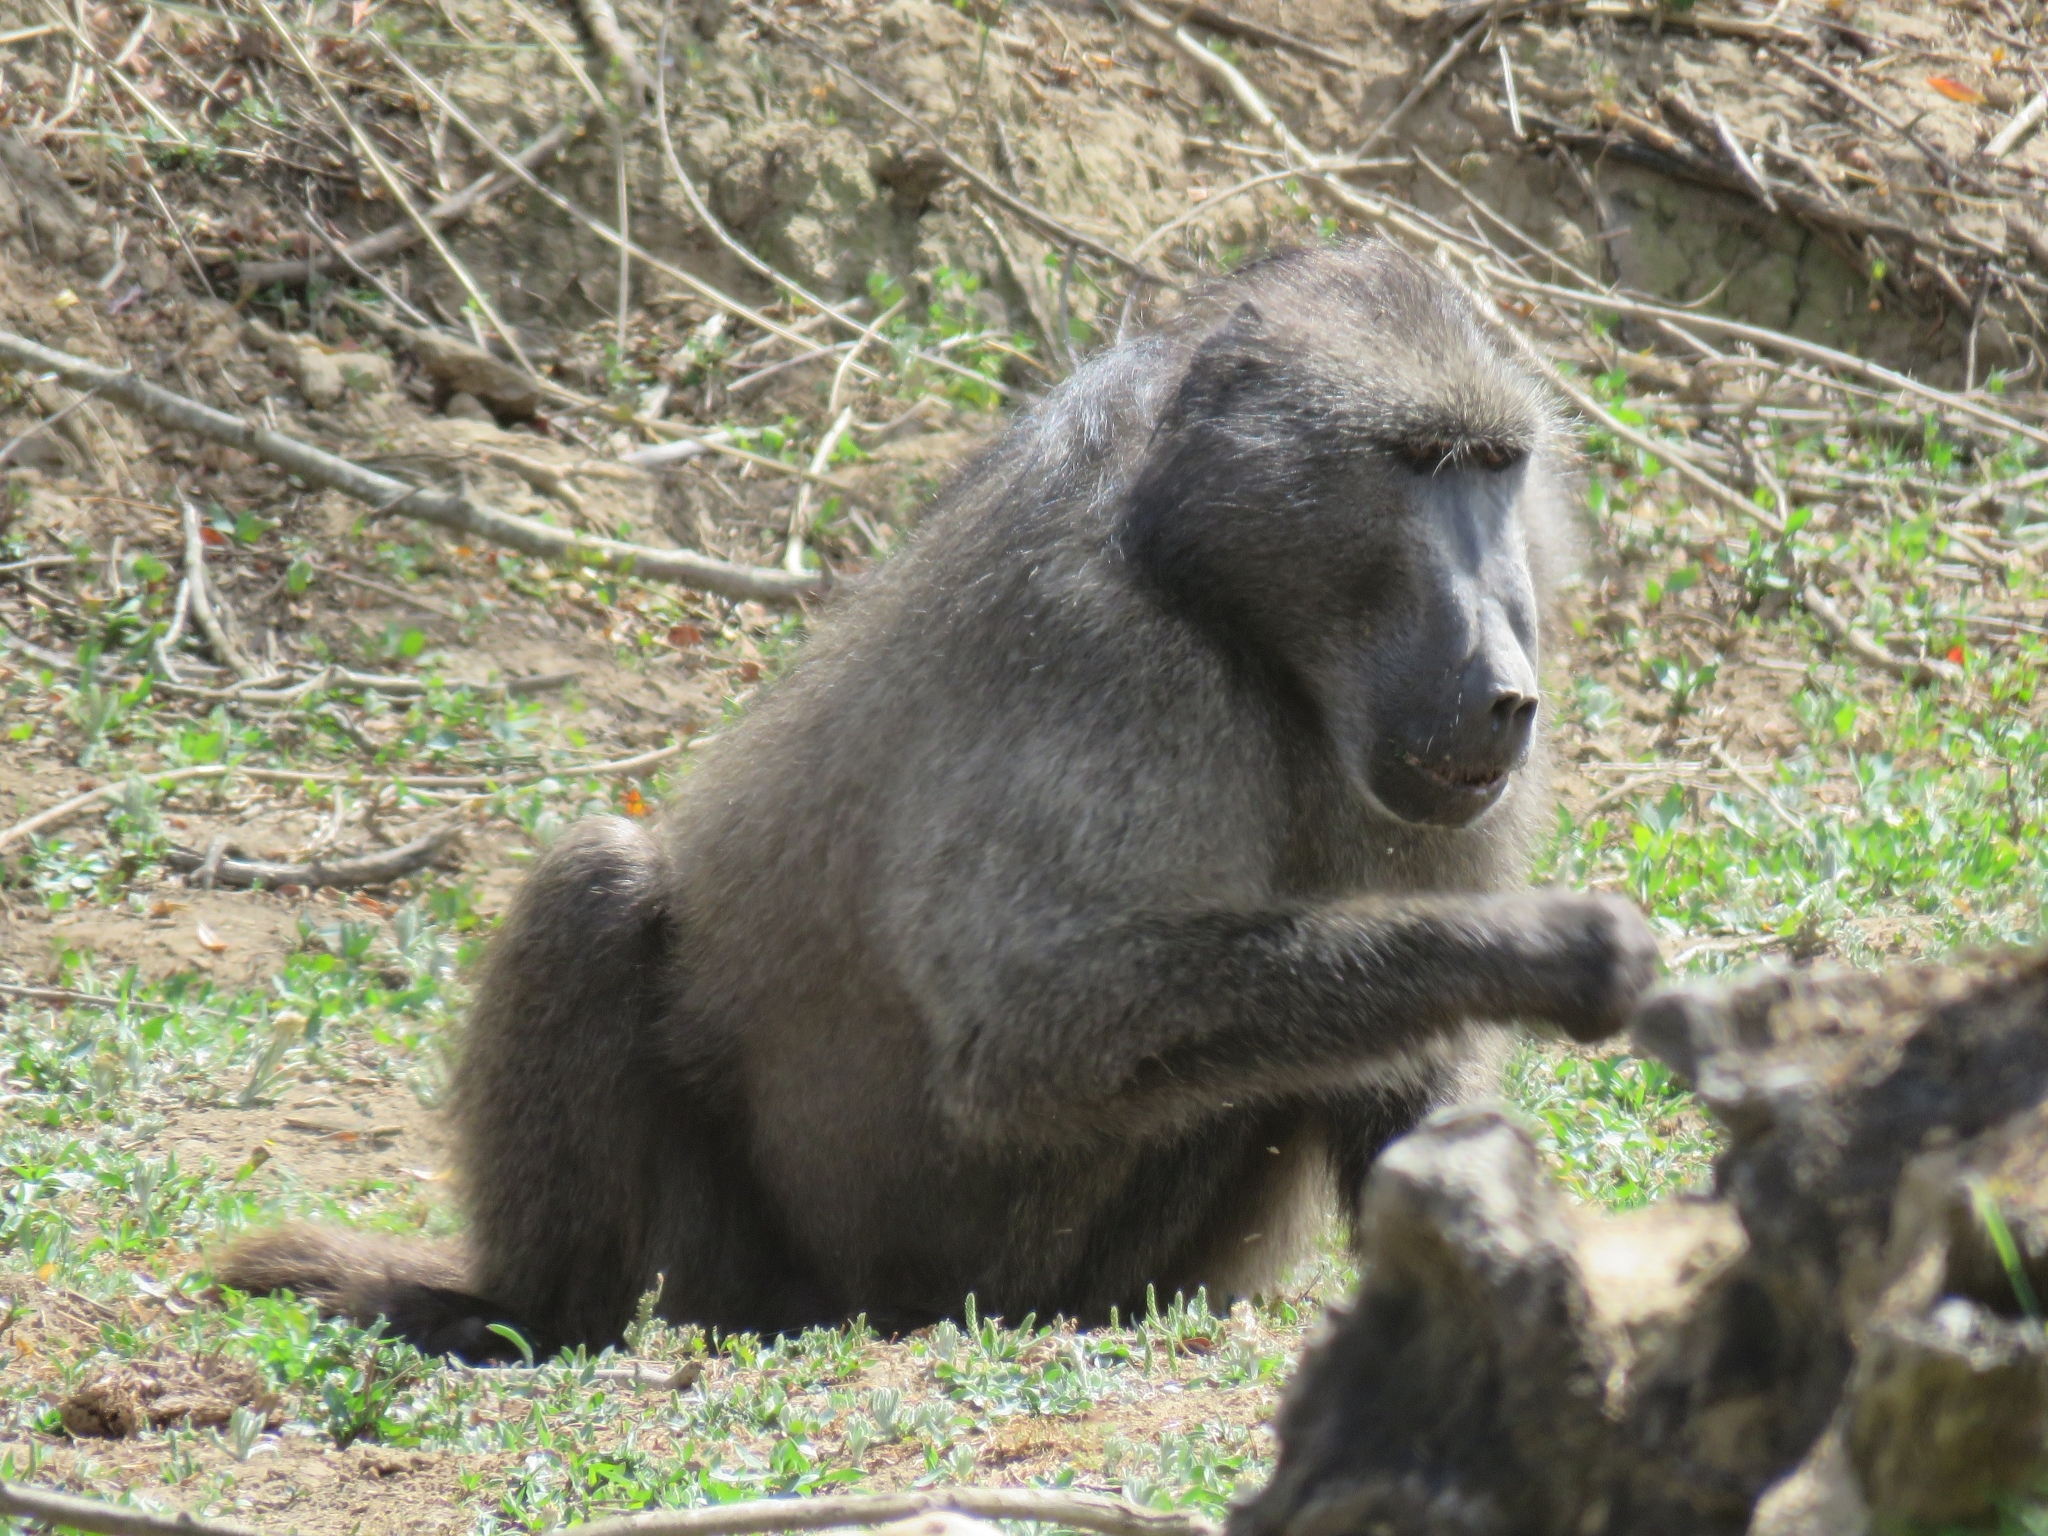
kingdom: Animalia
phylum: Chordata
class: Mammalia
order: Primates
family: Cercopithecidae
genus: Papio
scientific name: Papio ursinus
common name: Chacma baboon
